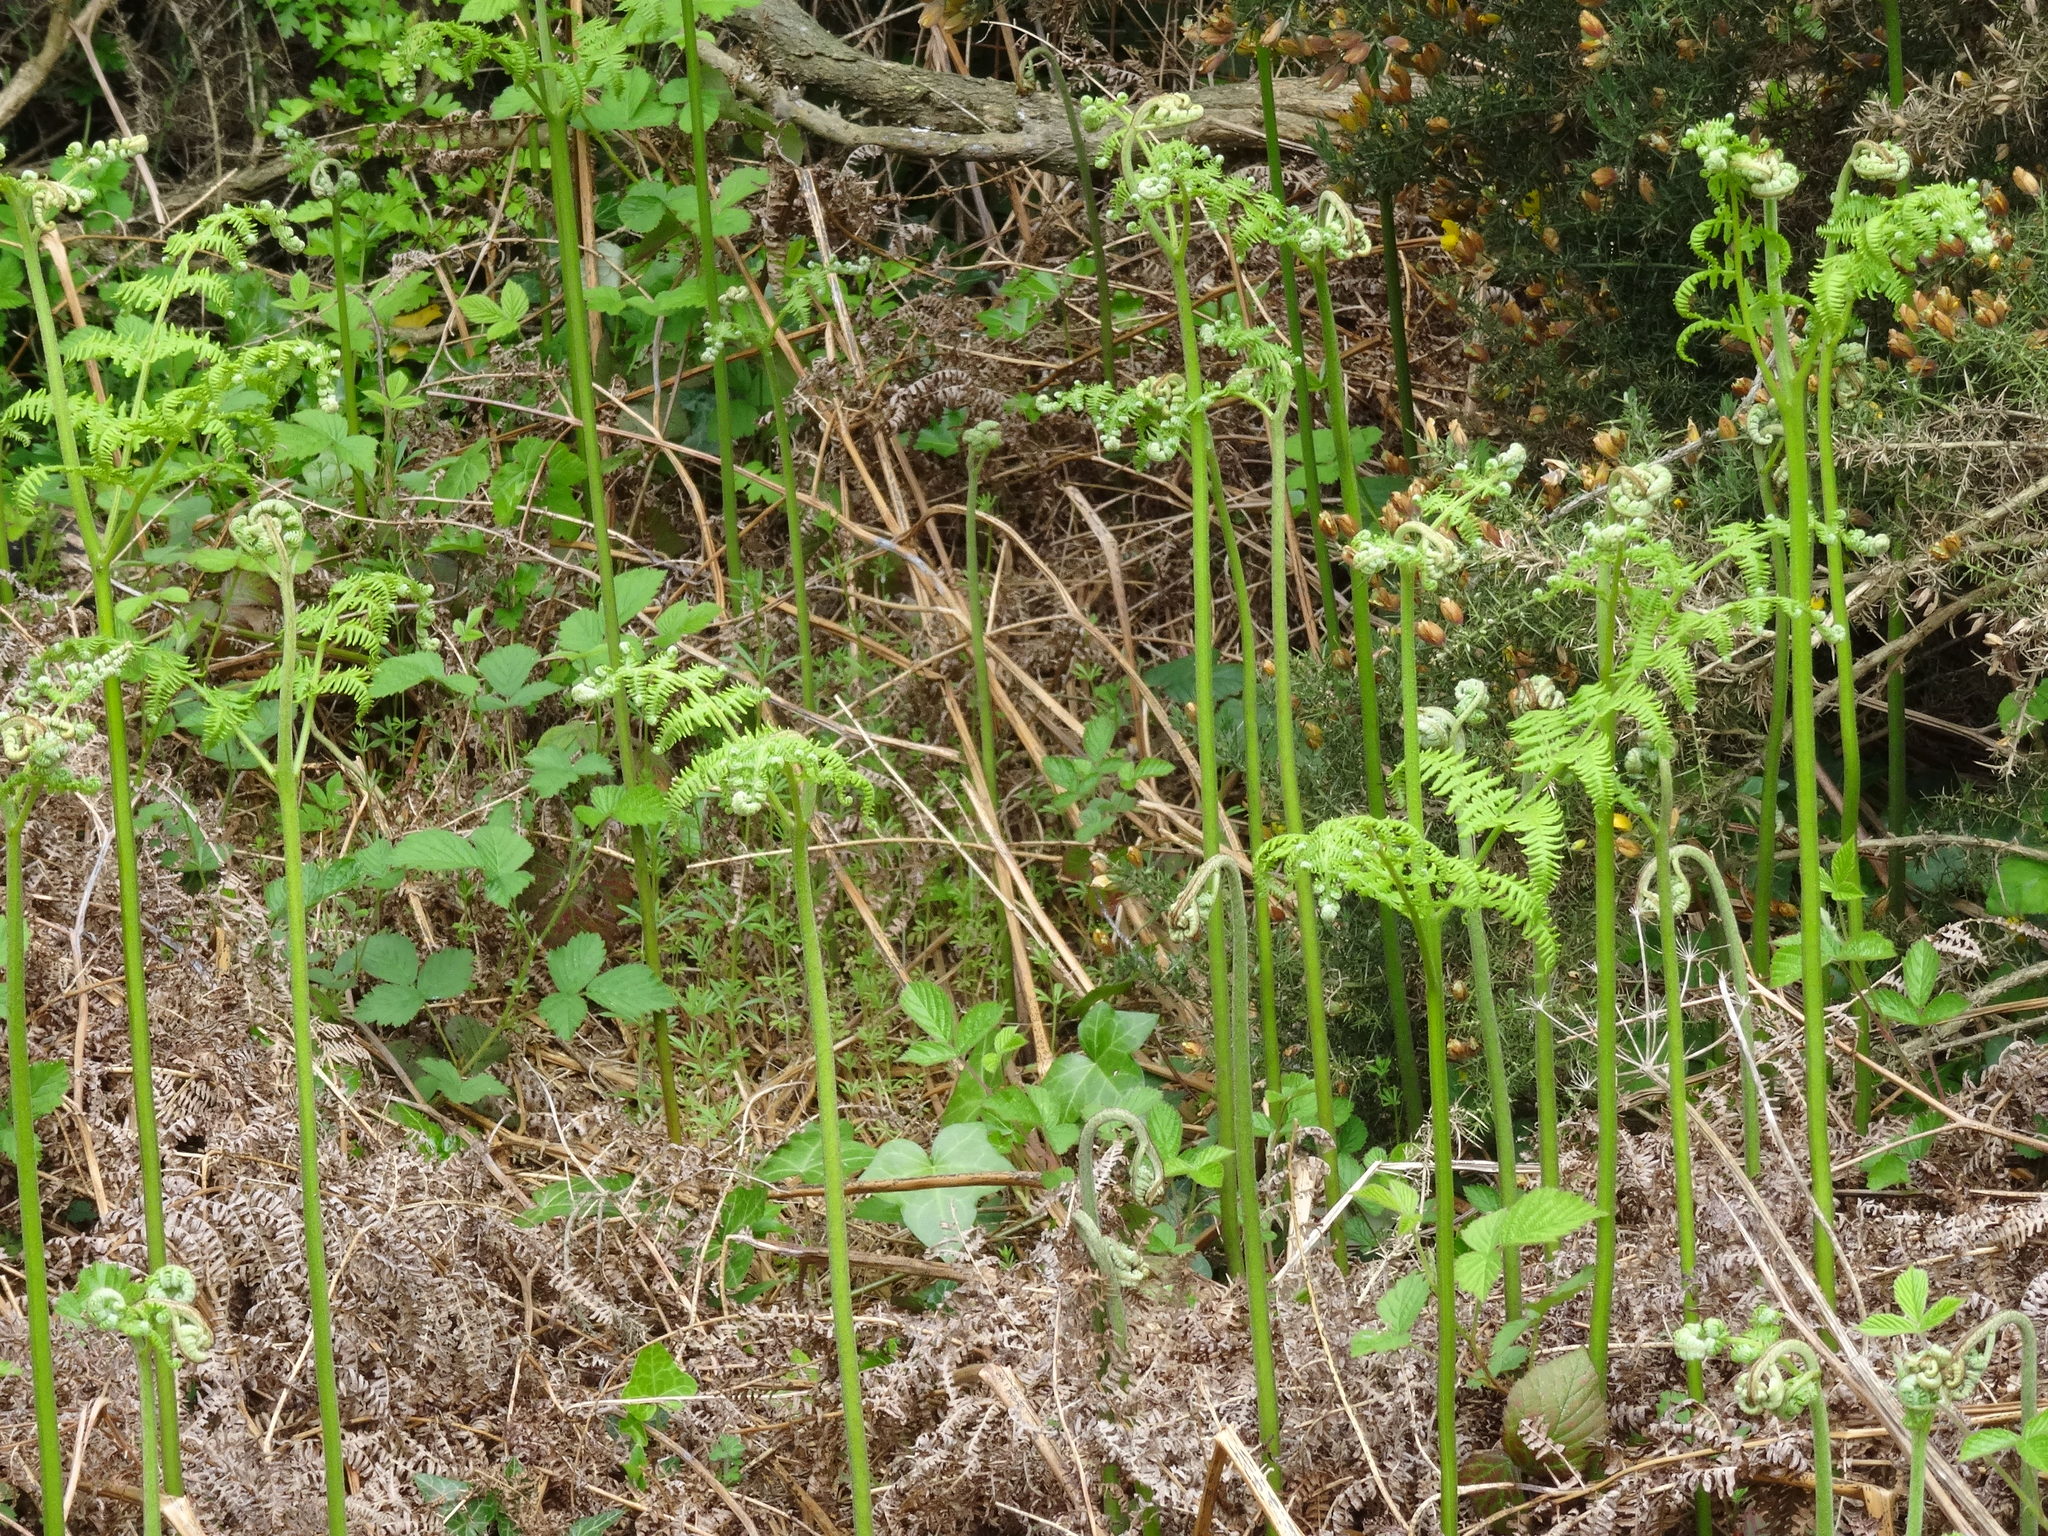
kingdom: Plantae
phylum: Tracheophyta
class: Polypodiopsida
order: Polypodiales
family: Dennstaedtiaceae
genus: Pteridium
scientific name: Pteridium aquilinum
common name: Bracken
